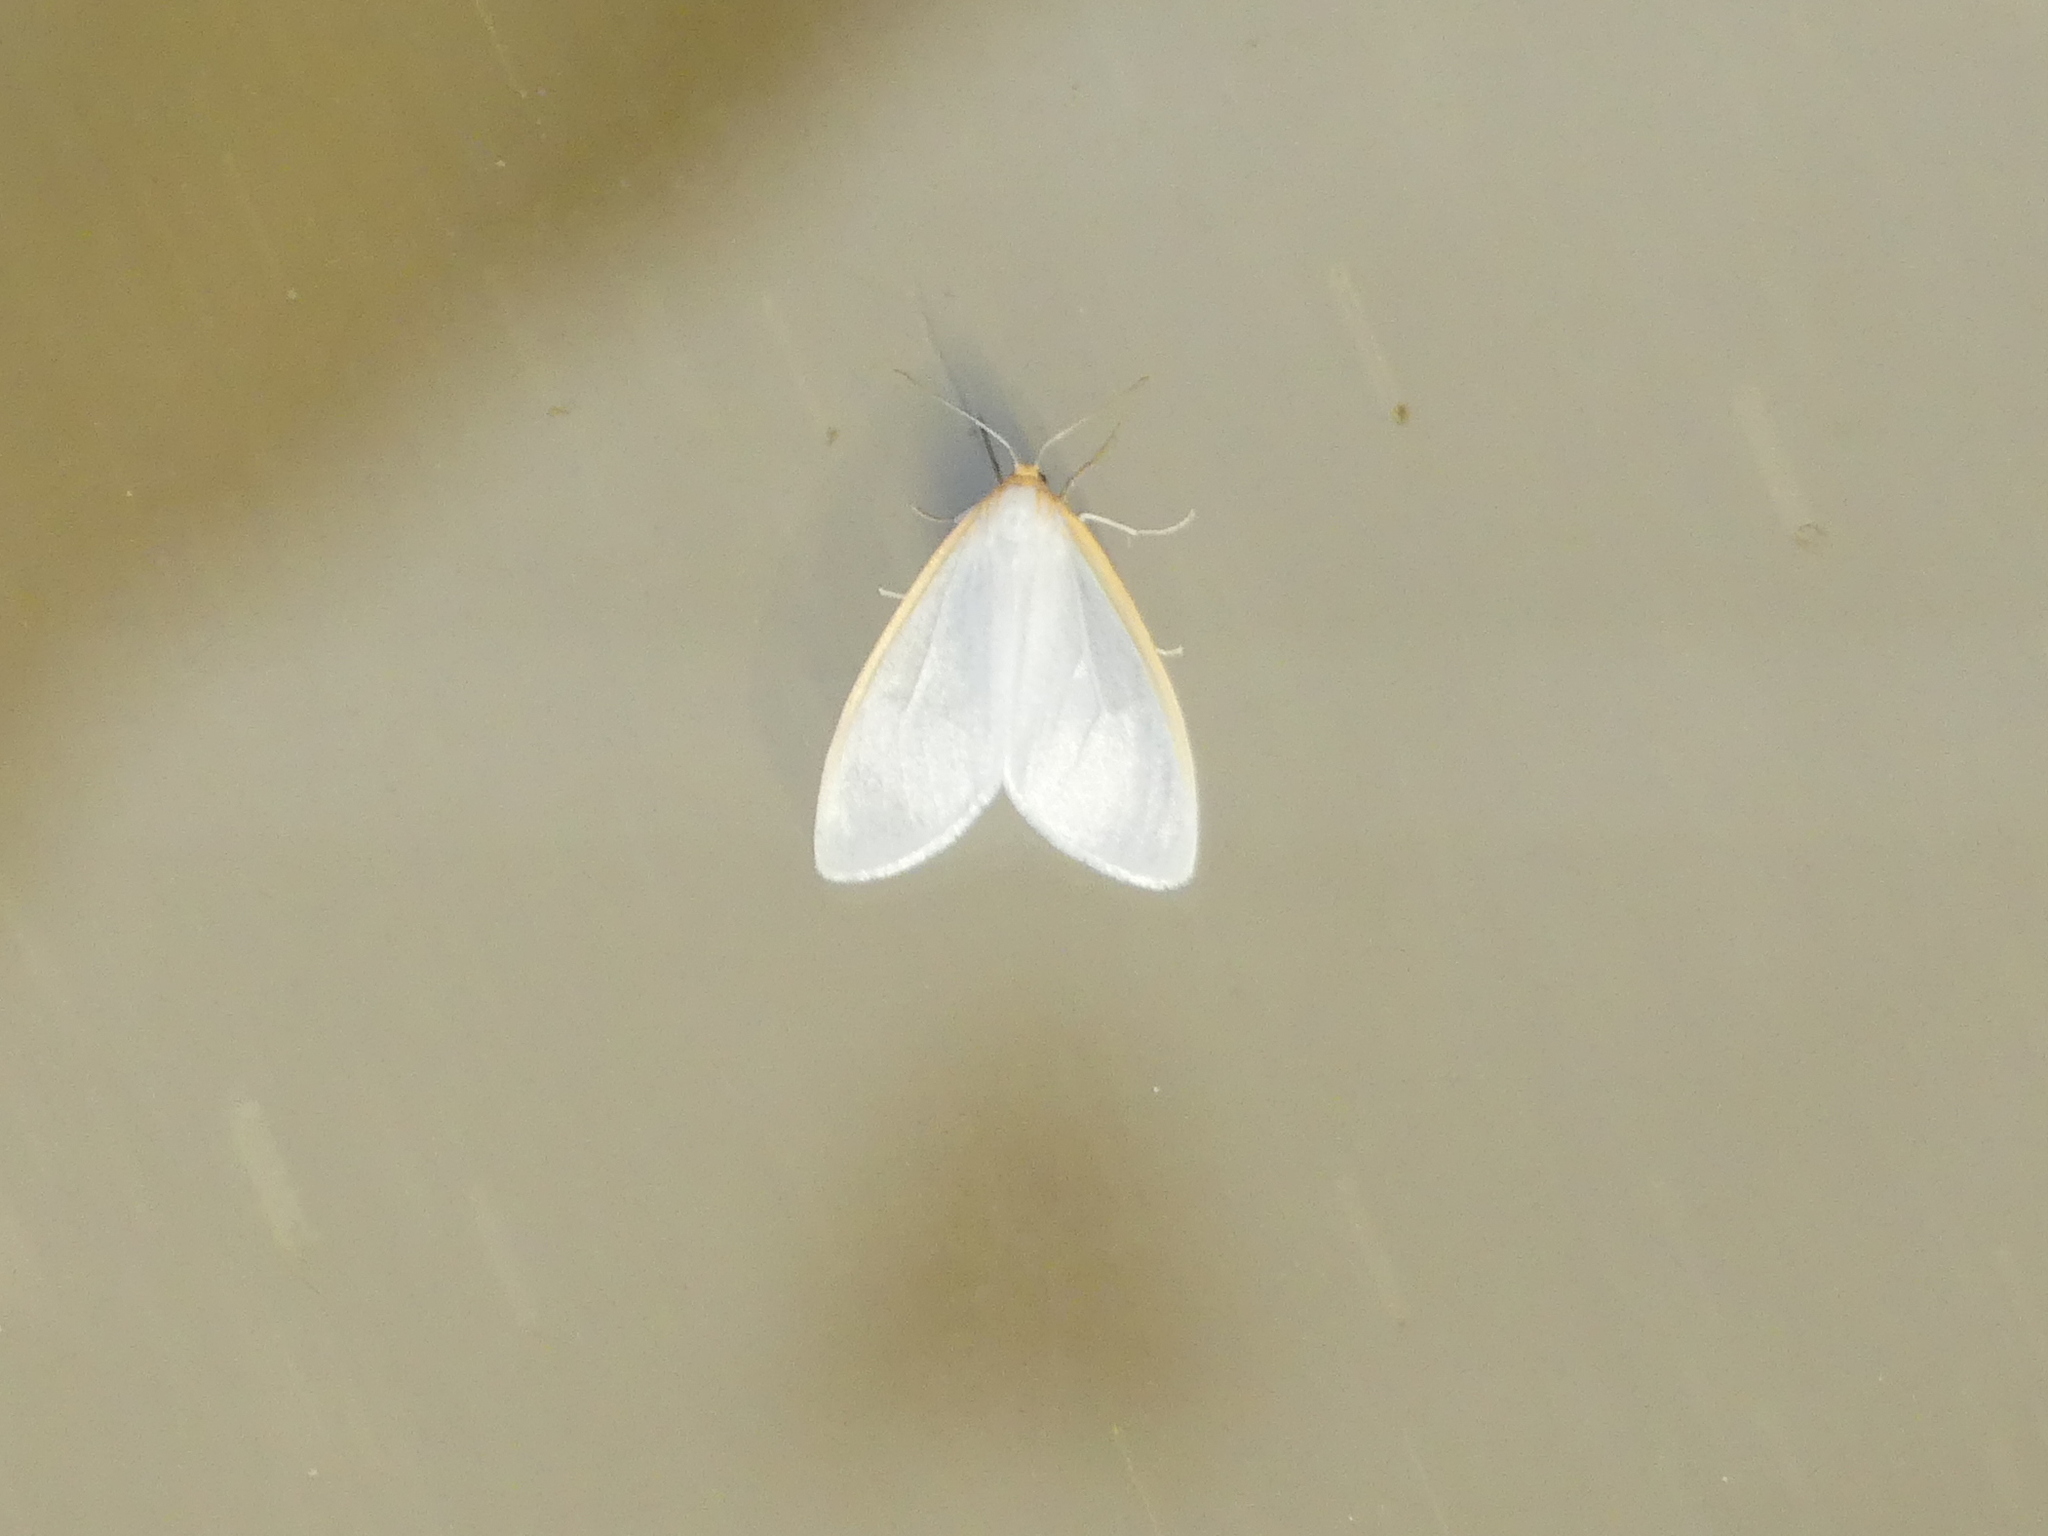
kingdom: Animalia
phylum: Arthropoda
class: Insecta
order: Lepidoptera
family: Erebidae
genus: Cycnia
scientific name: Cycnia tenera
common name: Delicate cycnia moth
